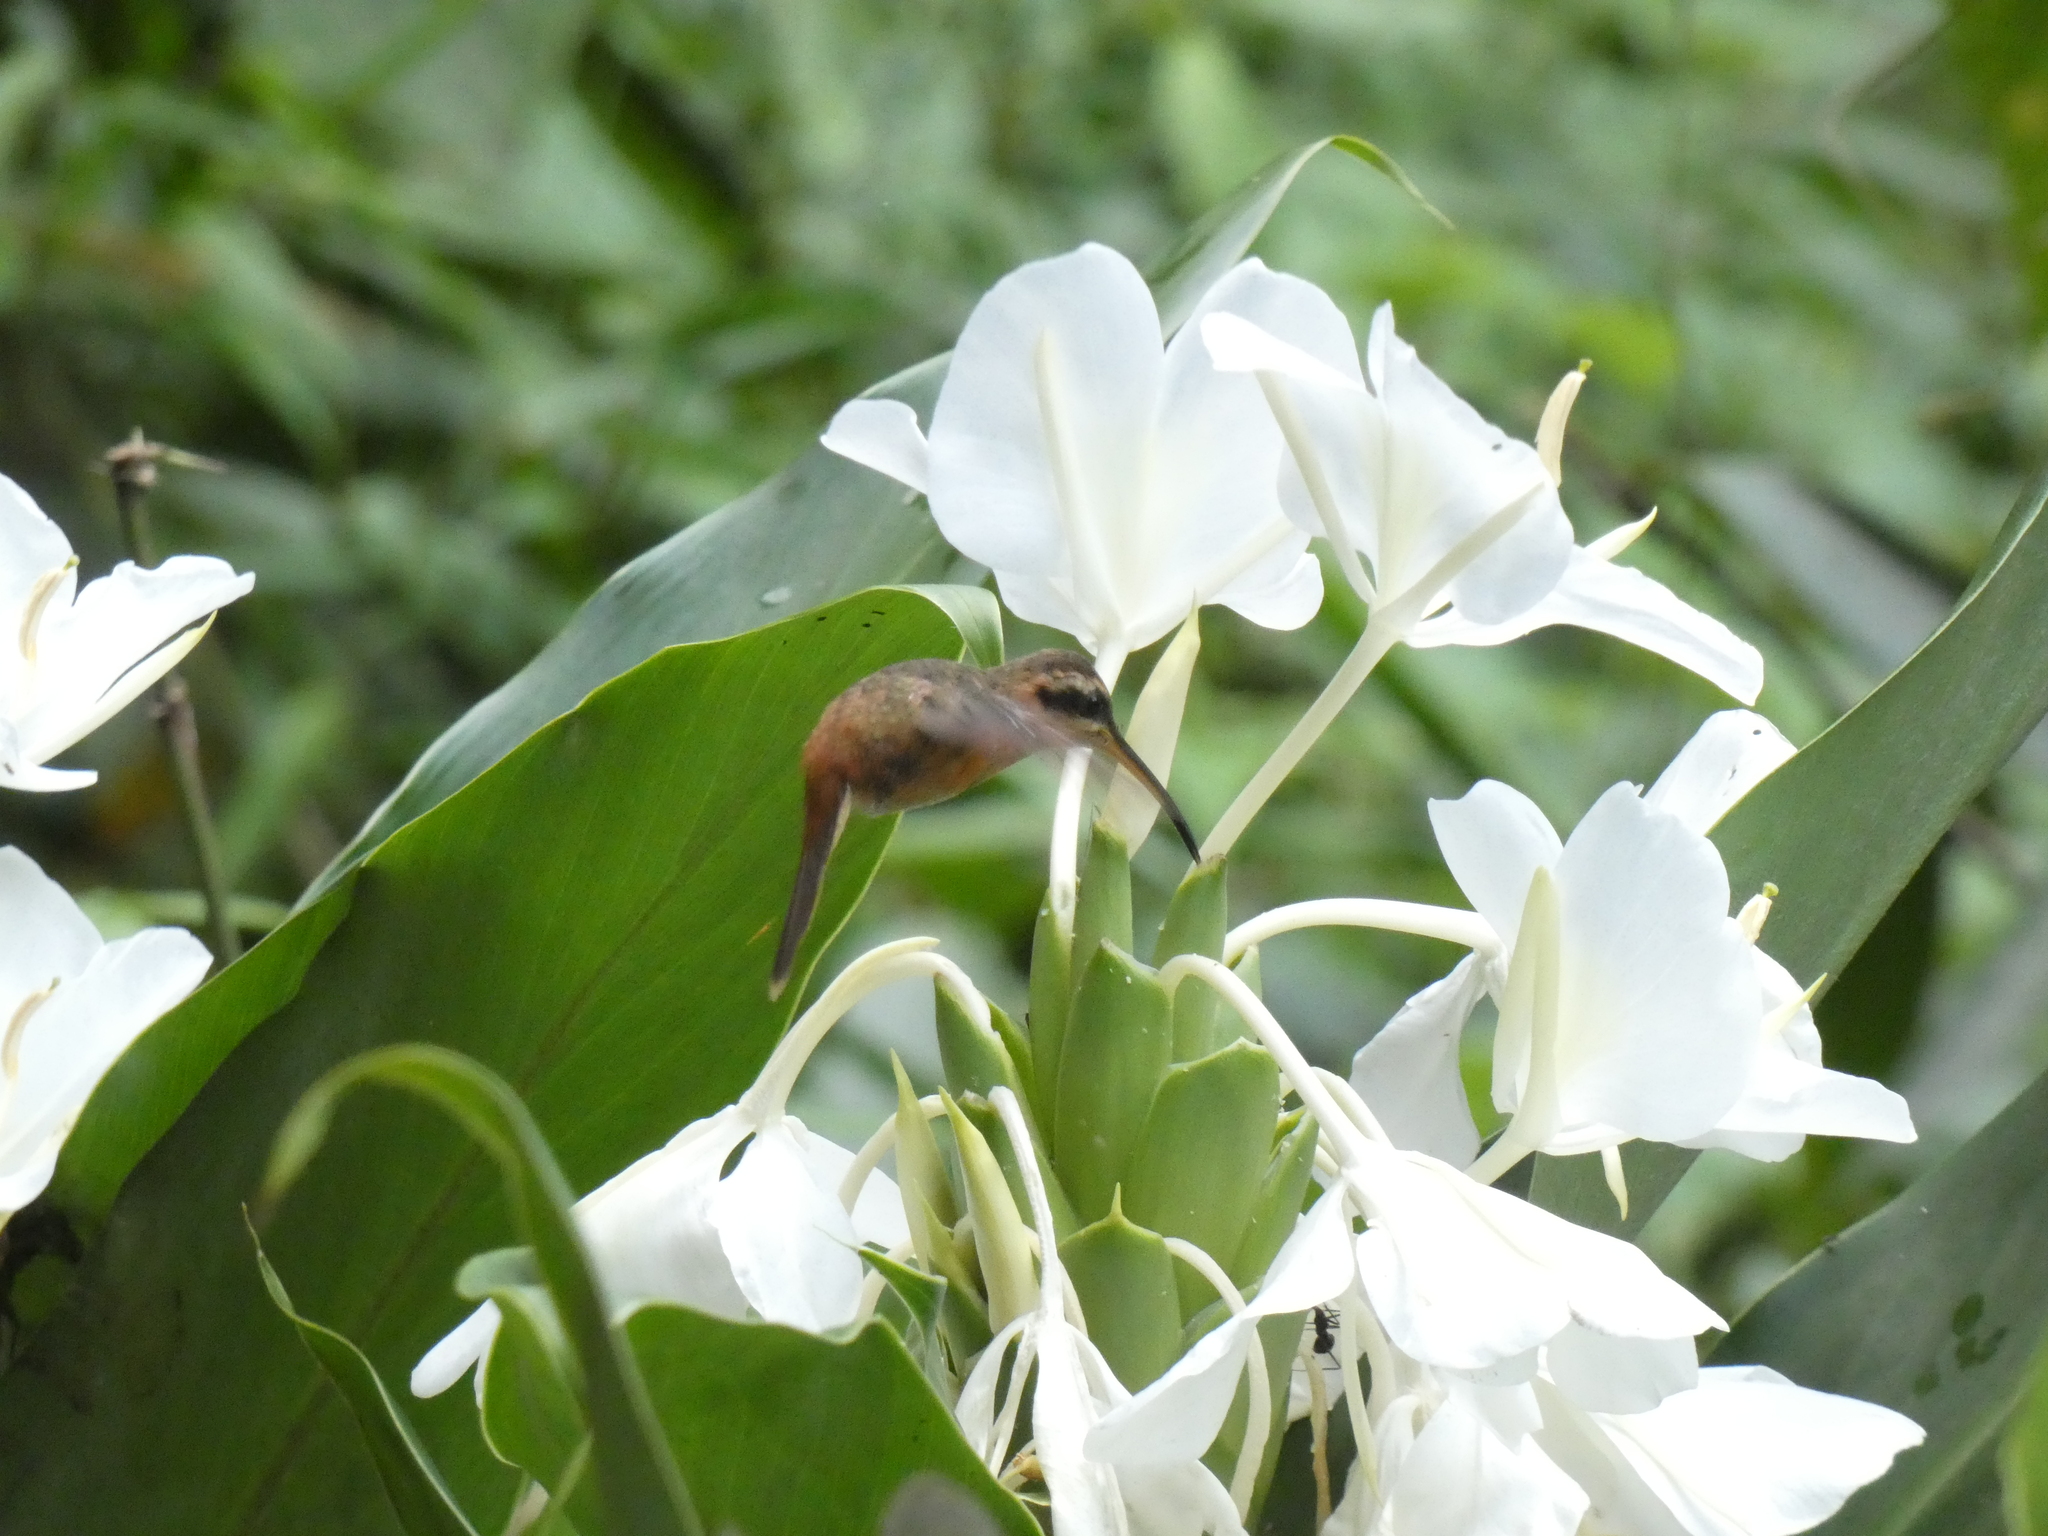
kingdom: Animalia
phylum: Chordata
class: Aves
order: Apodiformes
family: Trochilidae
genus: Phaethornis
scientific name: Phaethornis ruber
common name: Reddish hermit
